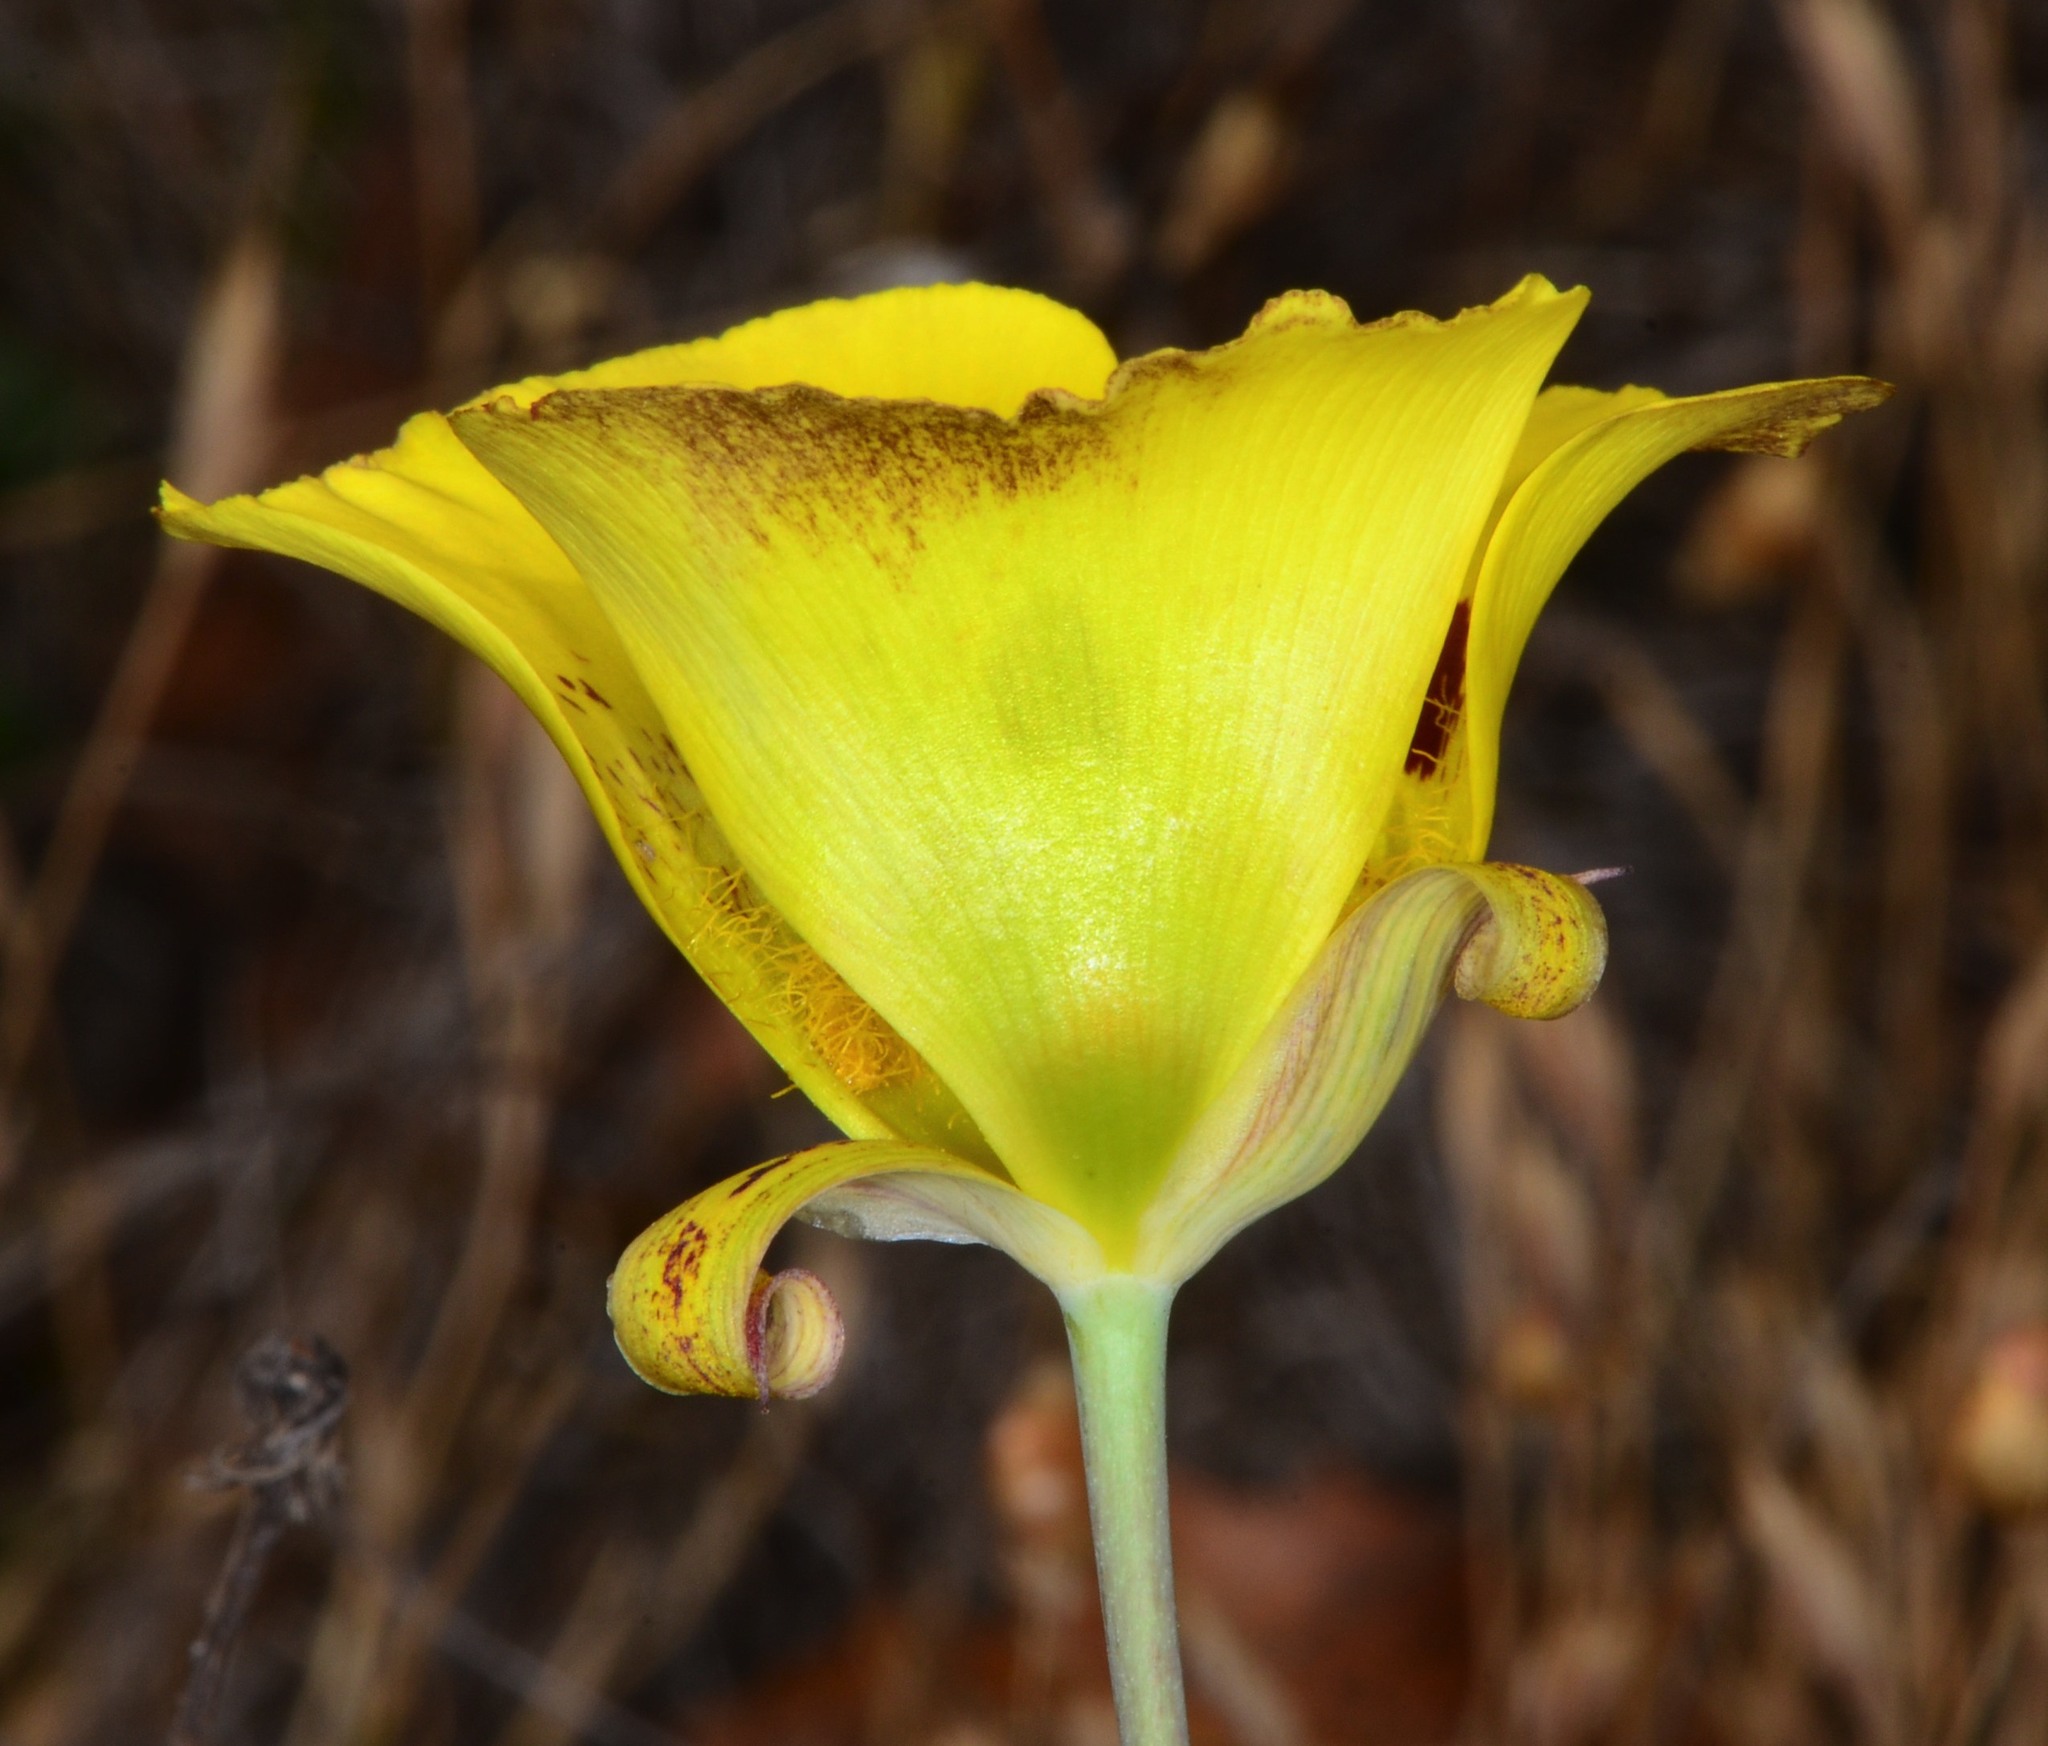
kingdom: Plantae
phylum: Tracheophyta
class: Liliopsida
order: Liliales
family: Liliaceae
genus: Calochortus
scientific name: Calochortus luteus
